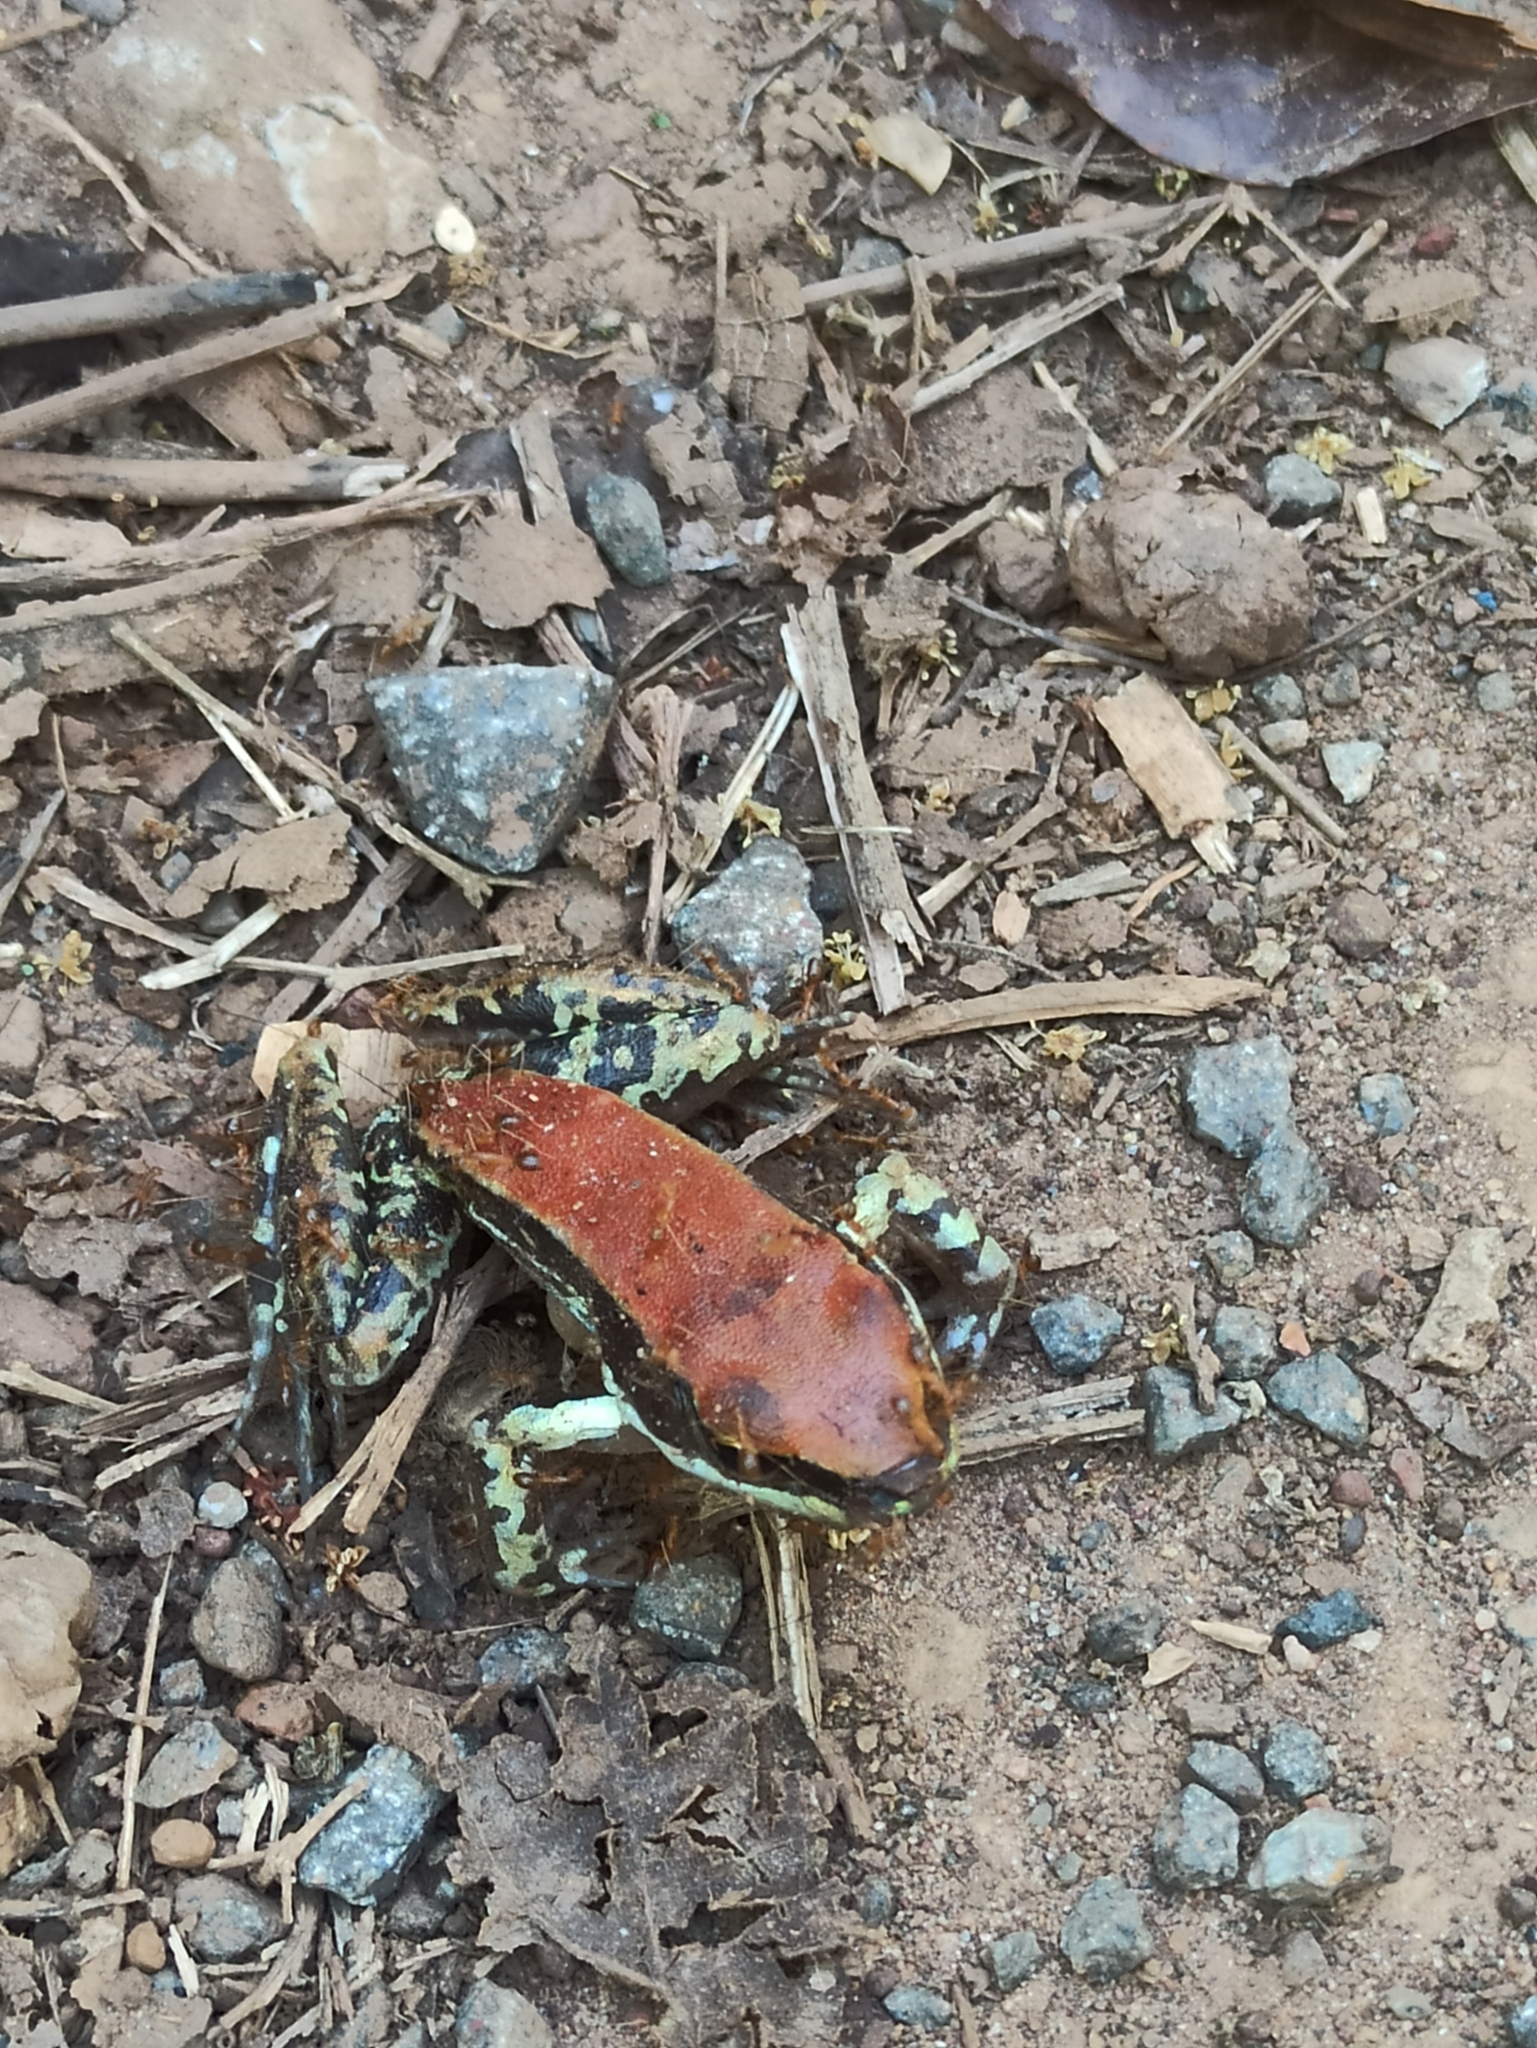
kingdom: Animalia
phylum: Chordata
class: Amphibia
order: Anura
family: Ranidae
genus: Hydrophylax
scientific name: Hydrophylax malabaricus
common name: Malabar fungoid frog
